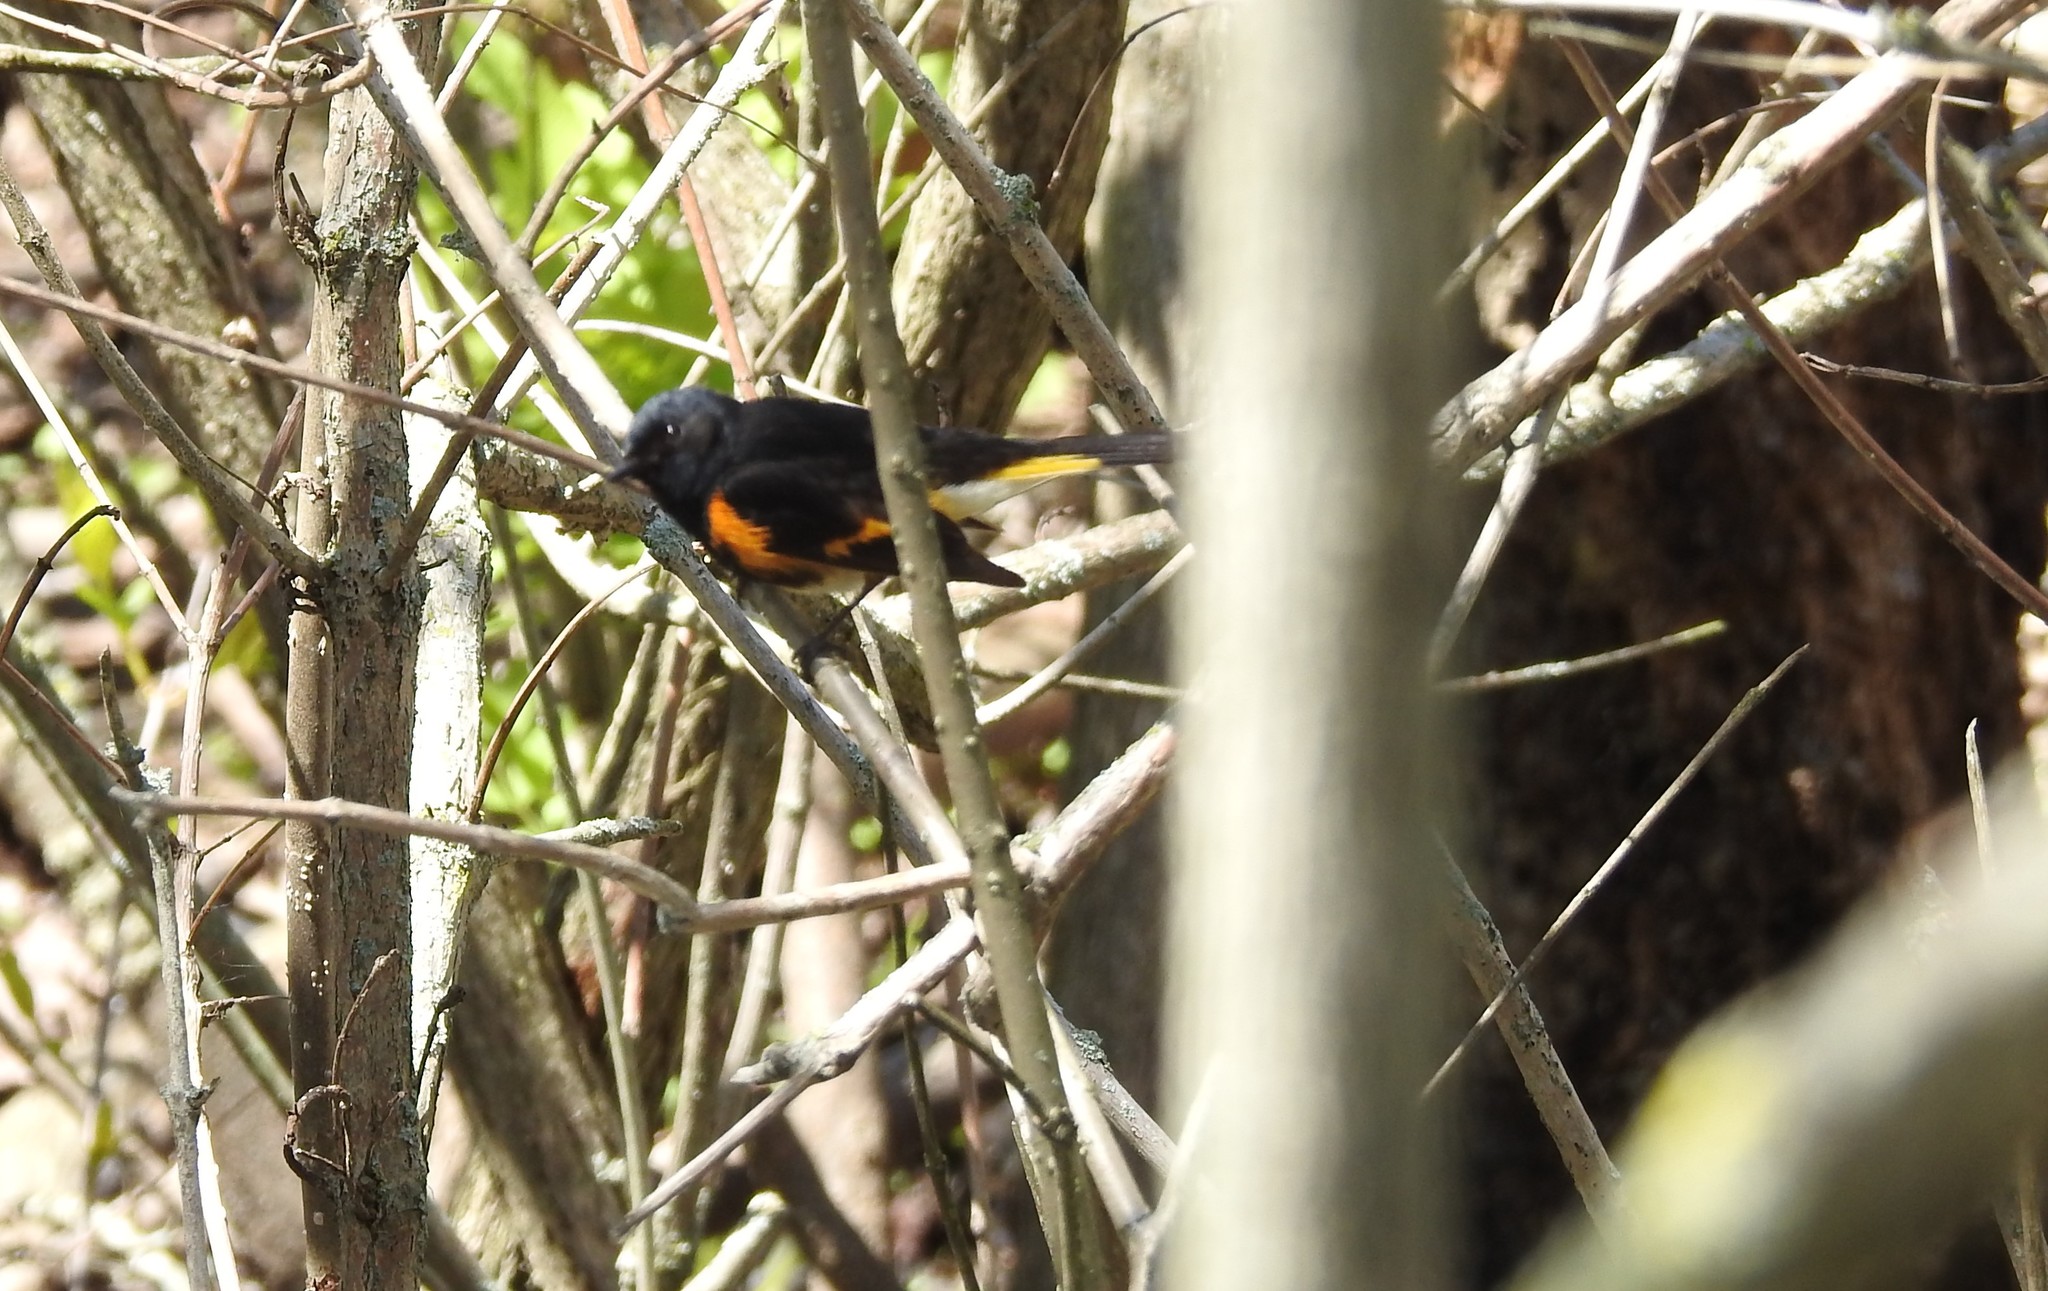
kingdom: Animalia
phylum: Chordata
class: Aves
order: Passeriformes
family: Parulidae
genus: Setophaga
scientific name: Setophaga ruticilla
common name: American redstart
